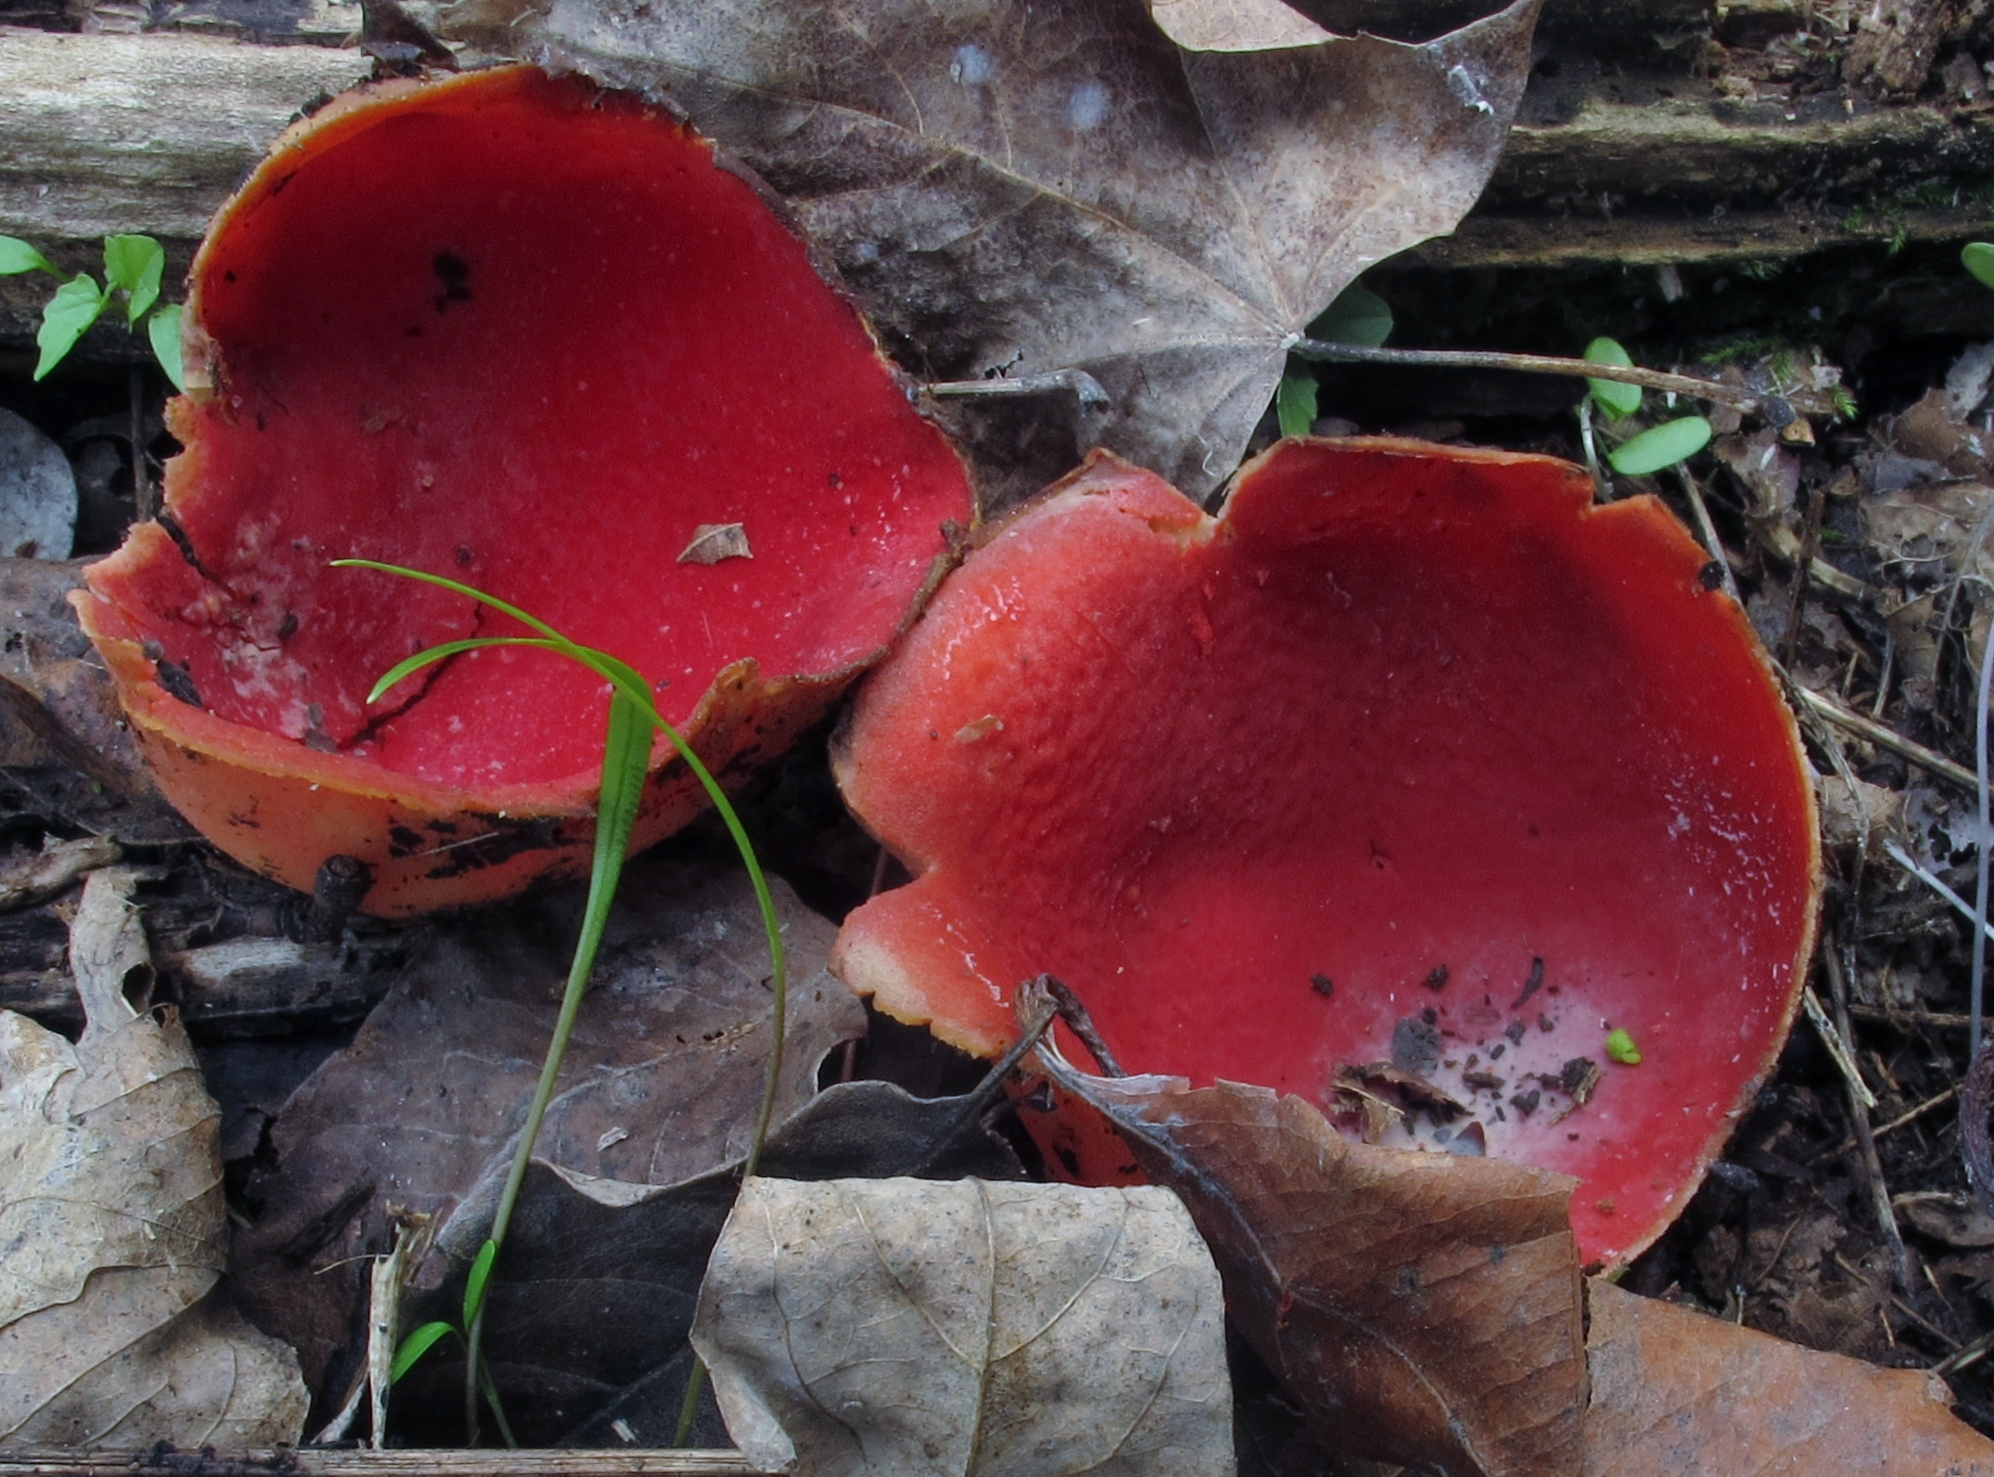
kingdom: Fungi
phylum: Ascomycota
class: Pezizomycetes
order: Pezizales
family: Sarcoscyphaceae
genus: Sarcoscypha
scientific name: Sarcoscypha austriaca
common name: Scarlet elfcup
